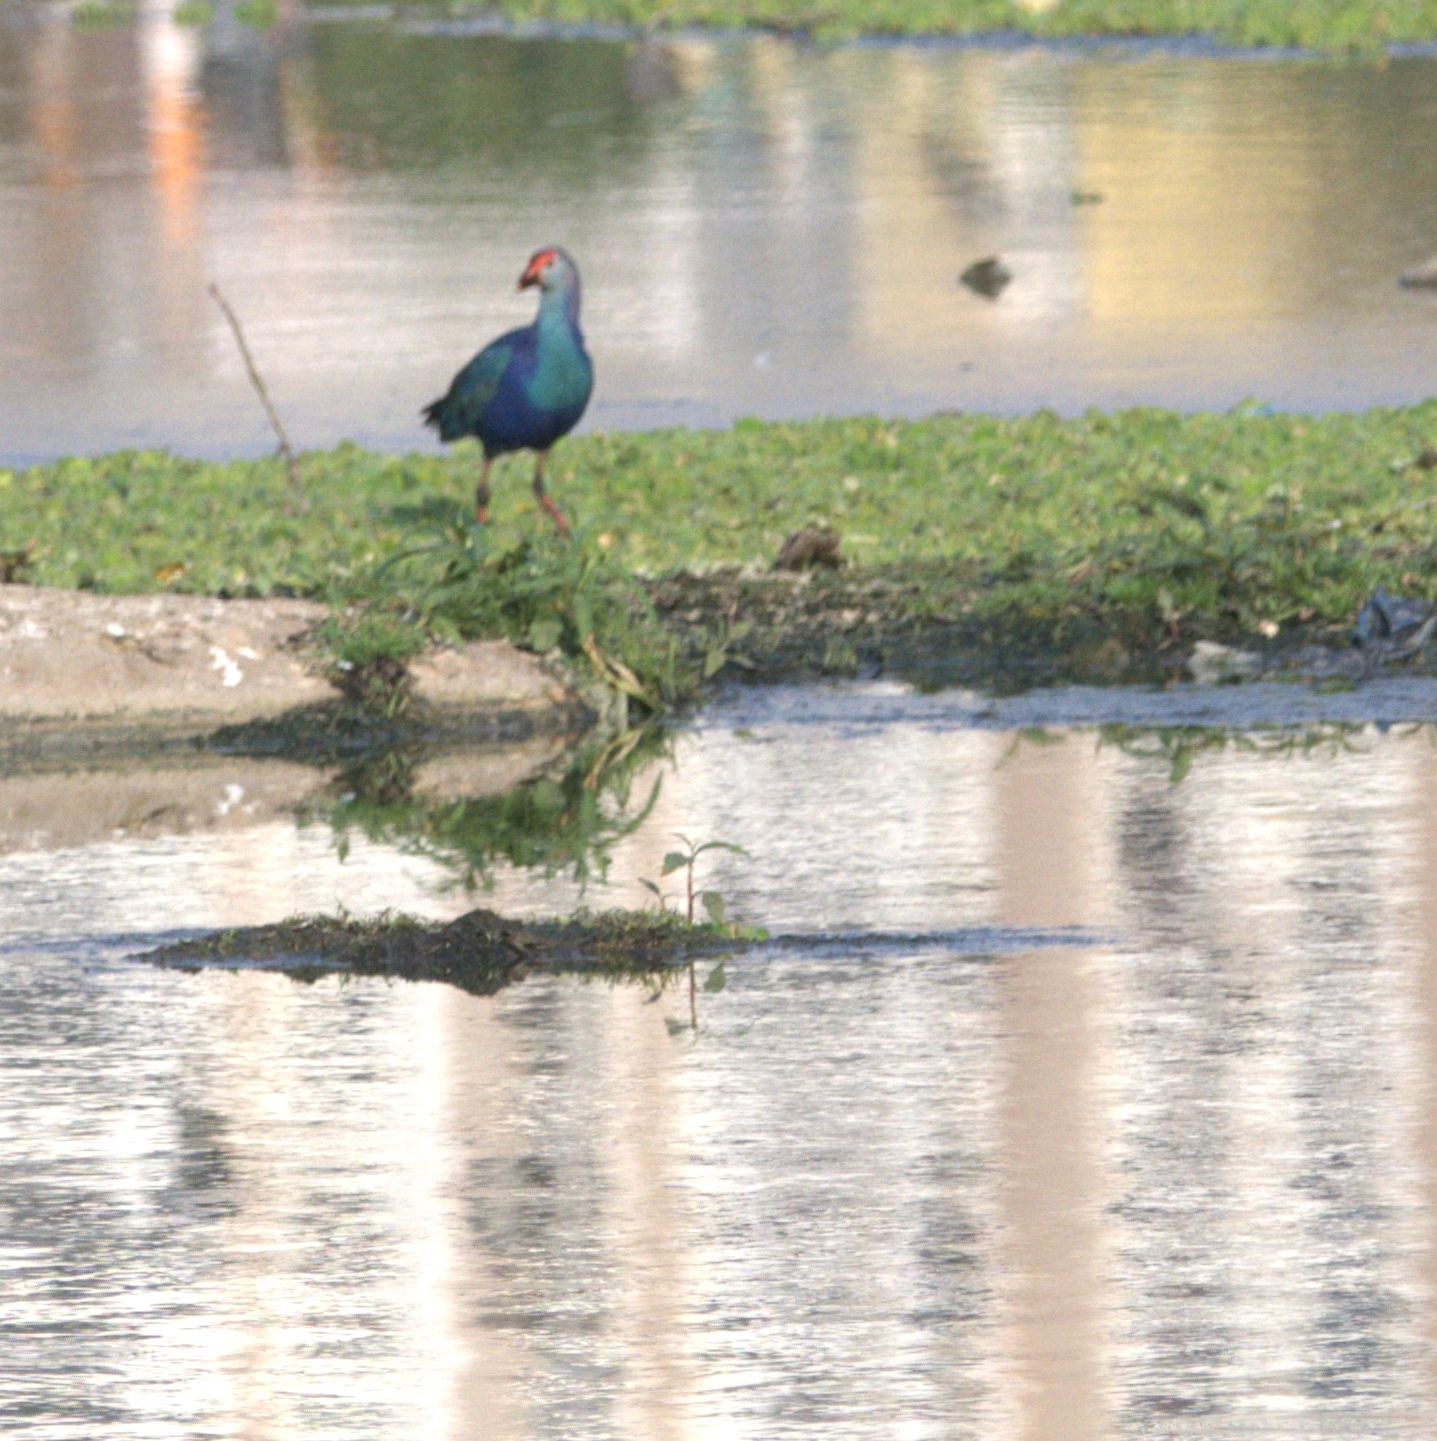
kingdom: Animalia
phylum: Chordata
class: Aves
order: Gruiformes
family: Rallidae
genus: Porphyrio
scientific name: Porphyrio porphyrio
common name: Purple swamphen
